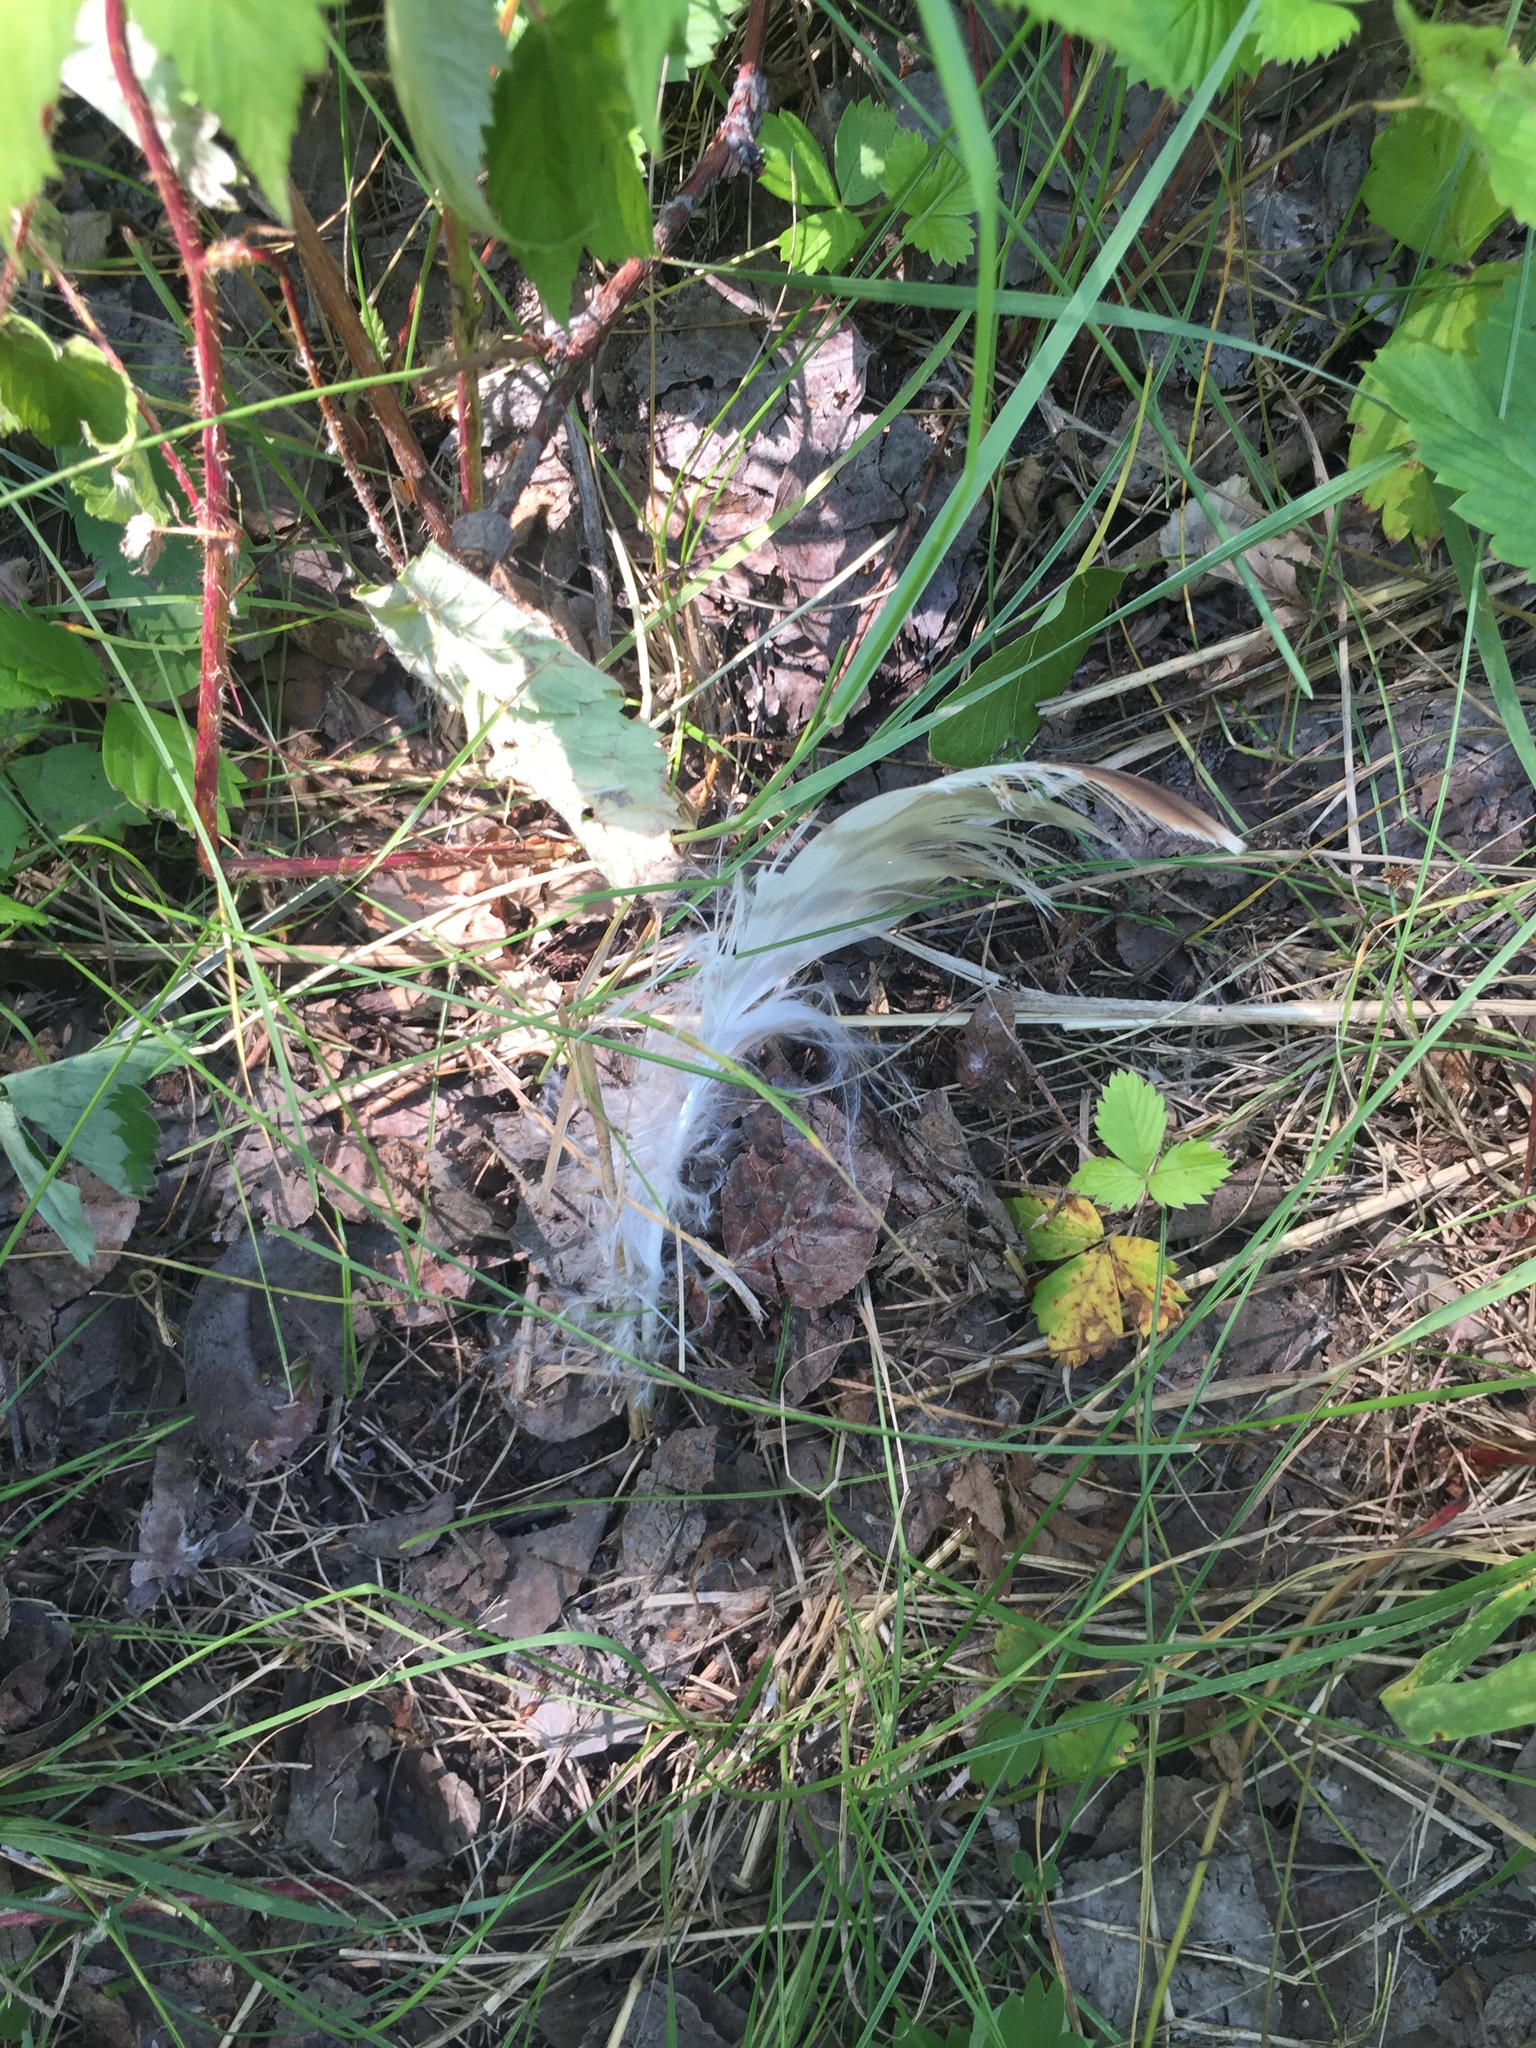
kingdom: Animalia
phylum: Chordata
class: Aves
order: Accipitriformes
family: Accipitridae
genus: Buteo
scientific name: Buteo jamaicensis
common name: Red-tailed hawk
